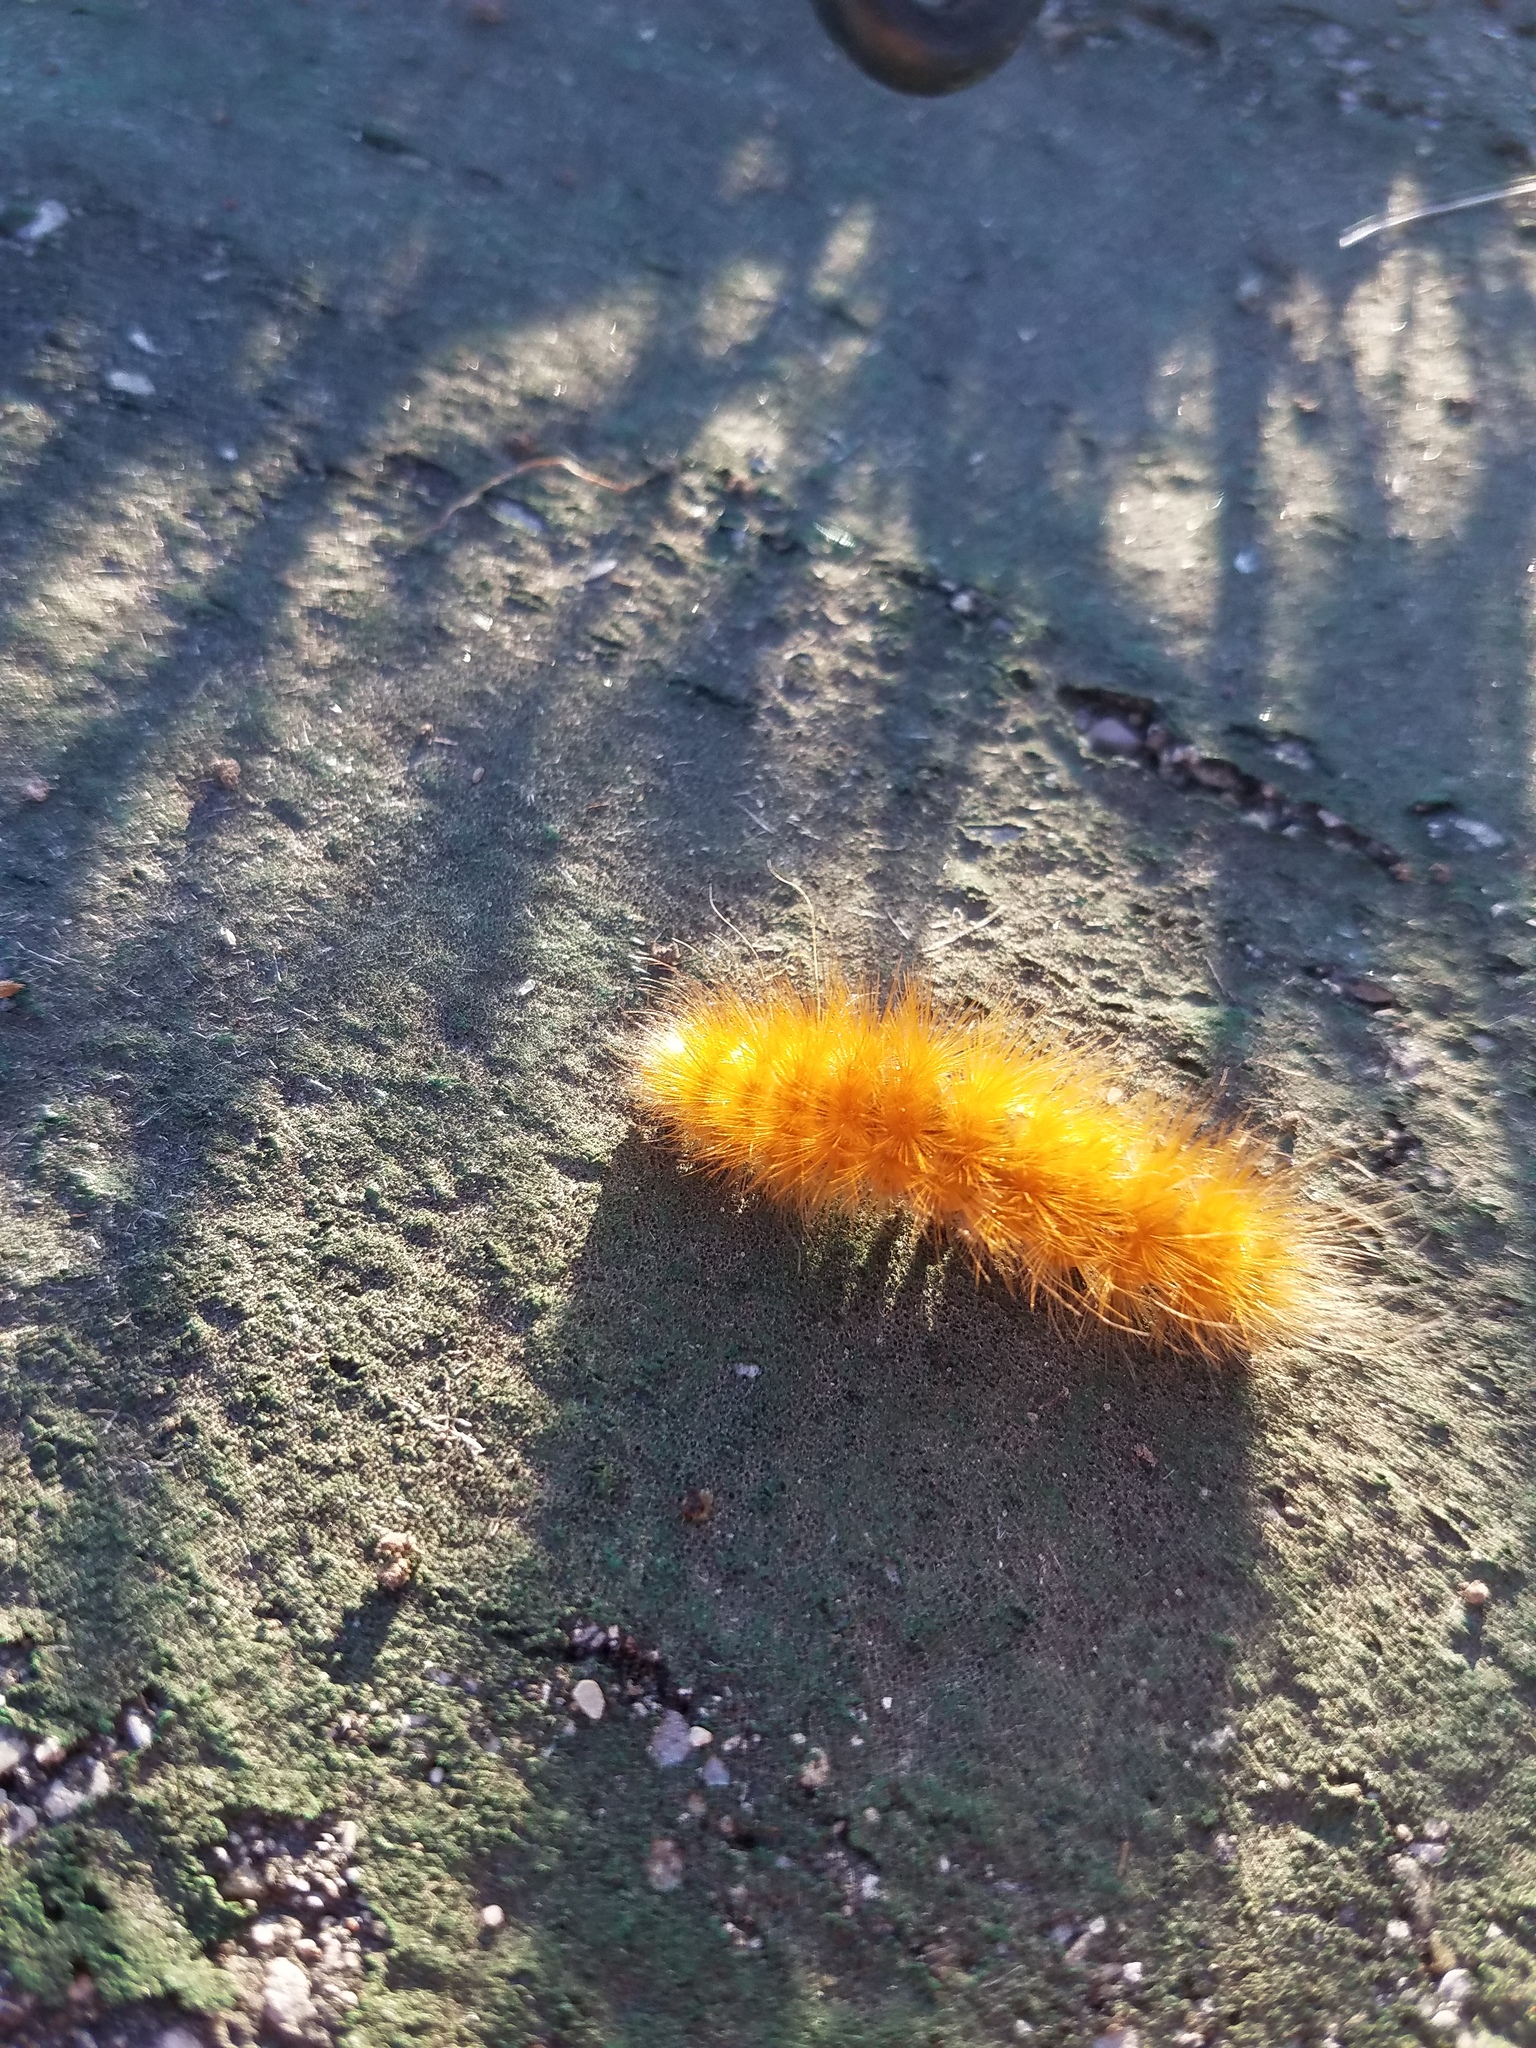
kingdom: Animalia
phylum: Arthropoda
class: Insecta
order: Lepidoptera
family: Erebidae
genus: Spilosoma
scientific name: Spilosoma virginica
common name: Virginia tiger moth
